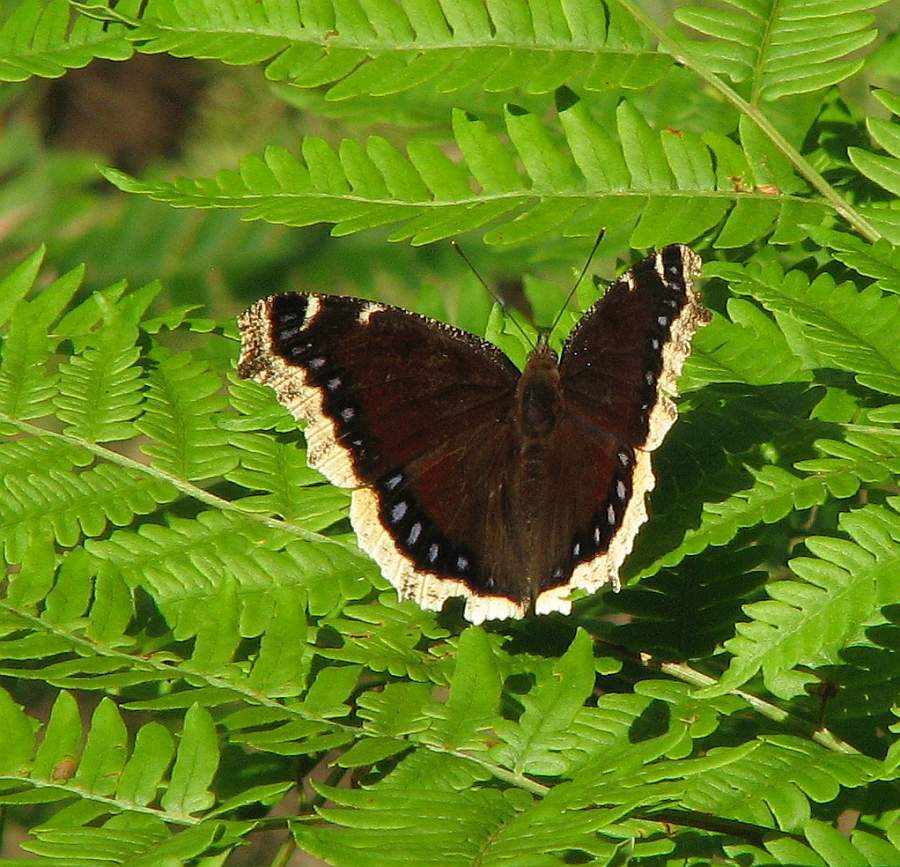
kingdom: Animalia
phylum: Arthropoda
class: Insecta
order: Lepidoptera
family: Nymphalidae
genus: Nymphalis
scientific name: Nymphalis antiopa
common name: Camberwell beauty
